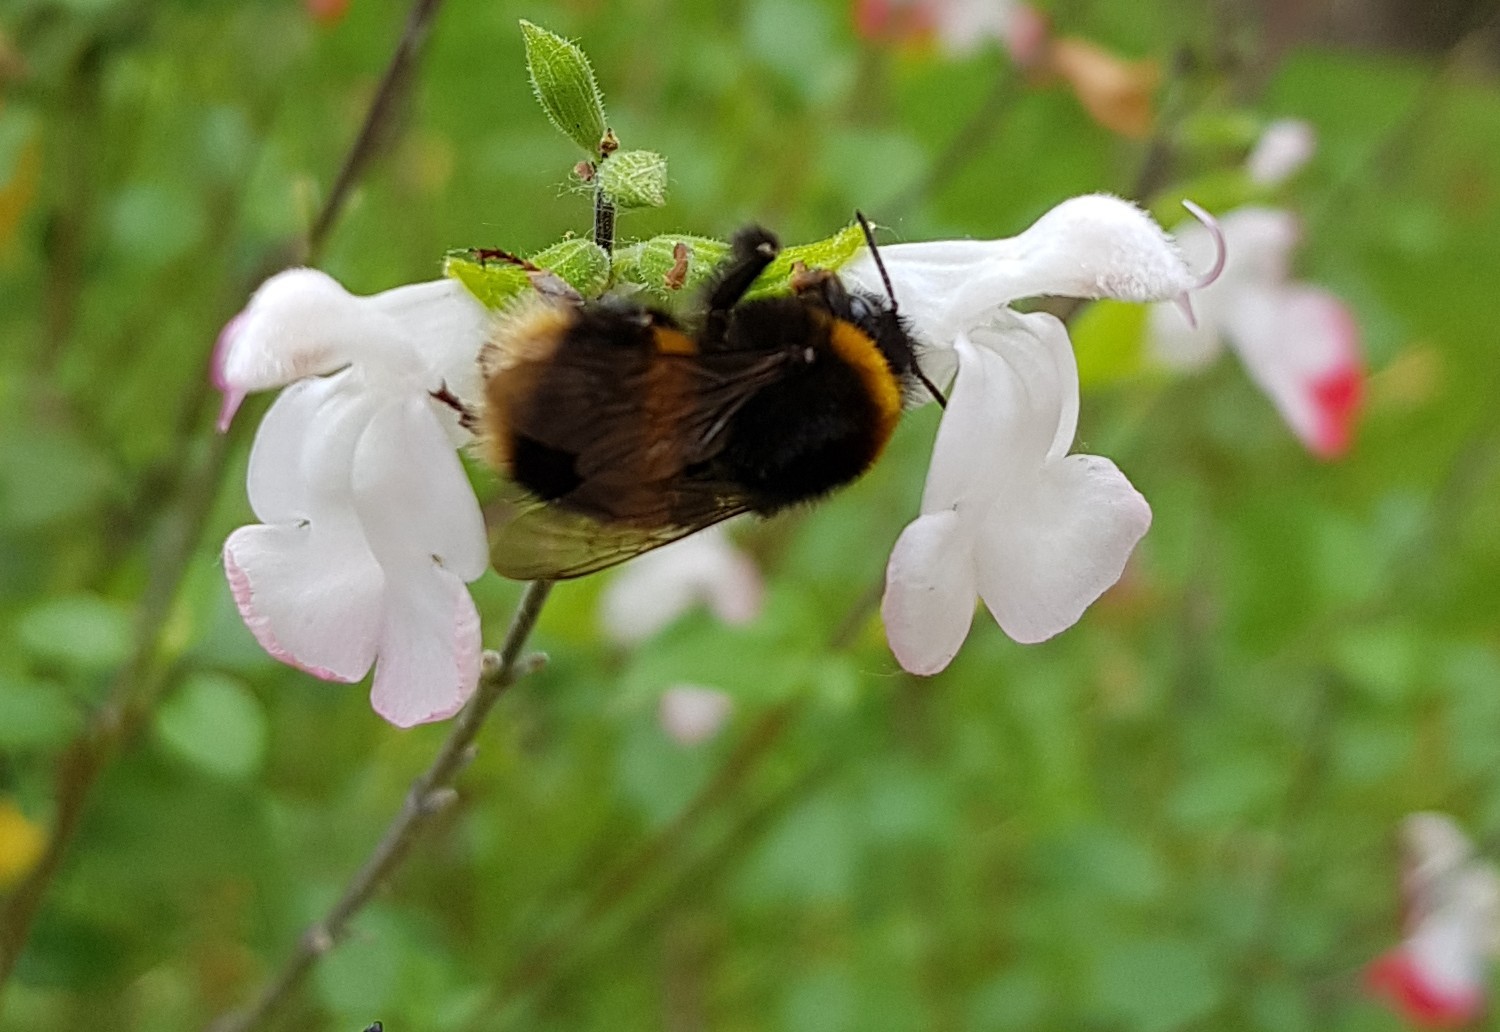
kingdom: Animalia
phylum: Arthropoda
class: Insecta
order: Hymenoptera
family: Apidae
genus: Bombus
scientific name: Bombus terrestris
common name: Buff-tailed bumblebee
